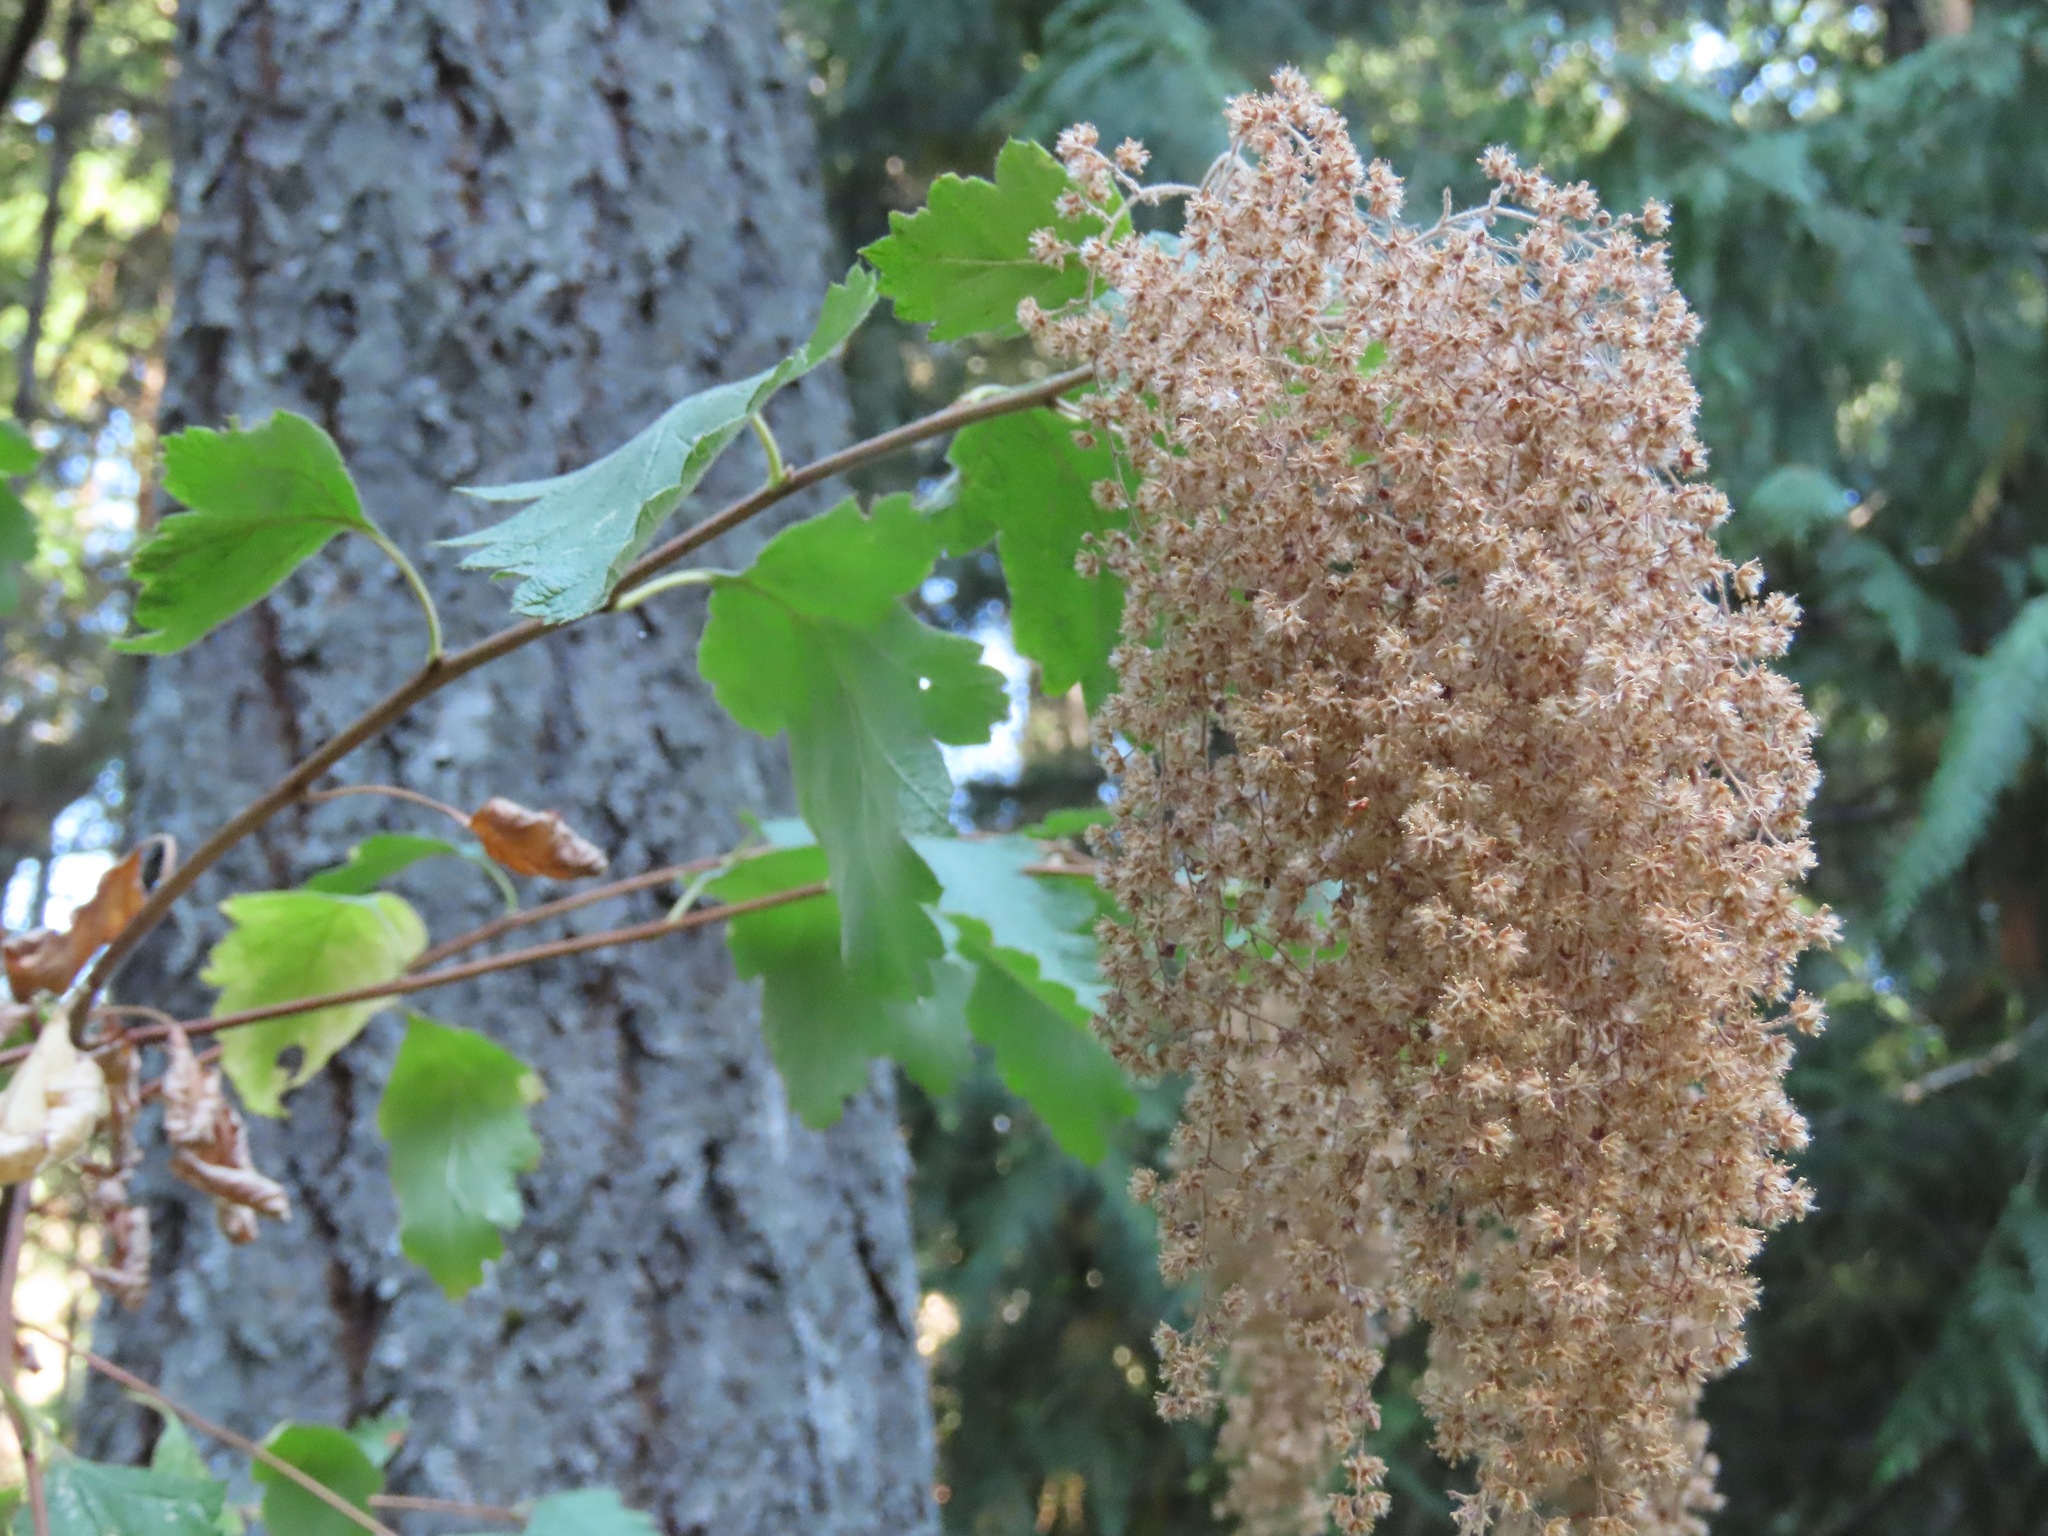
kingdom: Plantae
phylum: Tracheophyta
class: Magnoliopsida
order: Rosales
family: Rosaceae
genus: Holodiscus
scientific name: Holodiscus discolor
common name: Oceanspray
